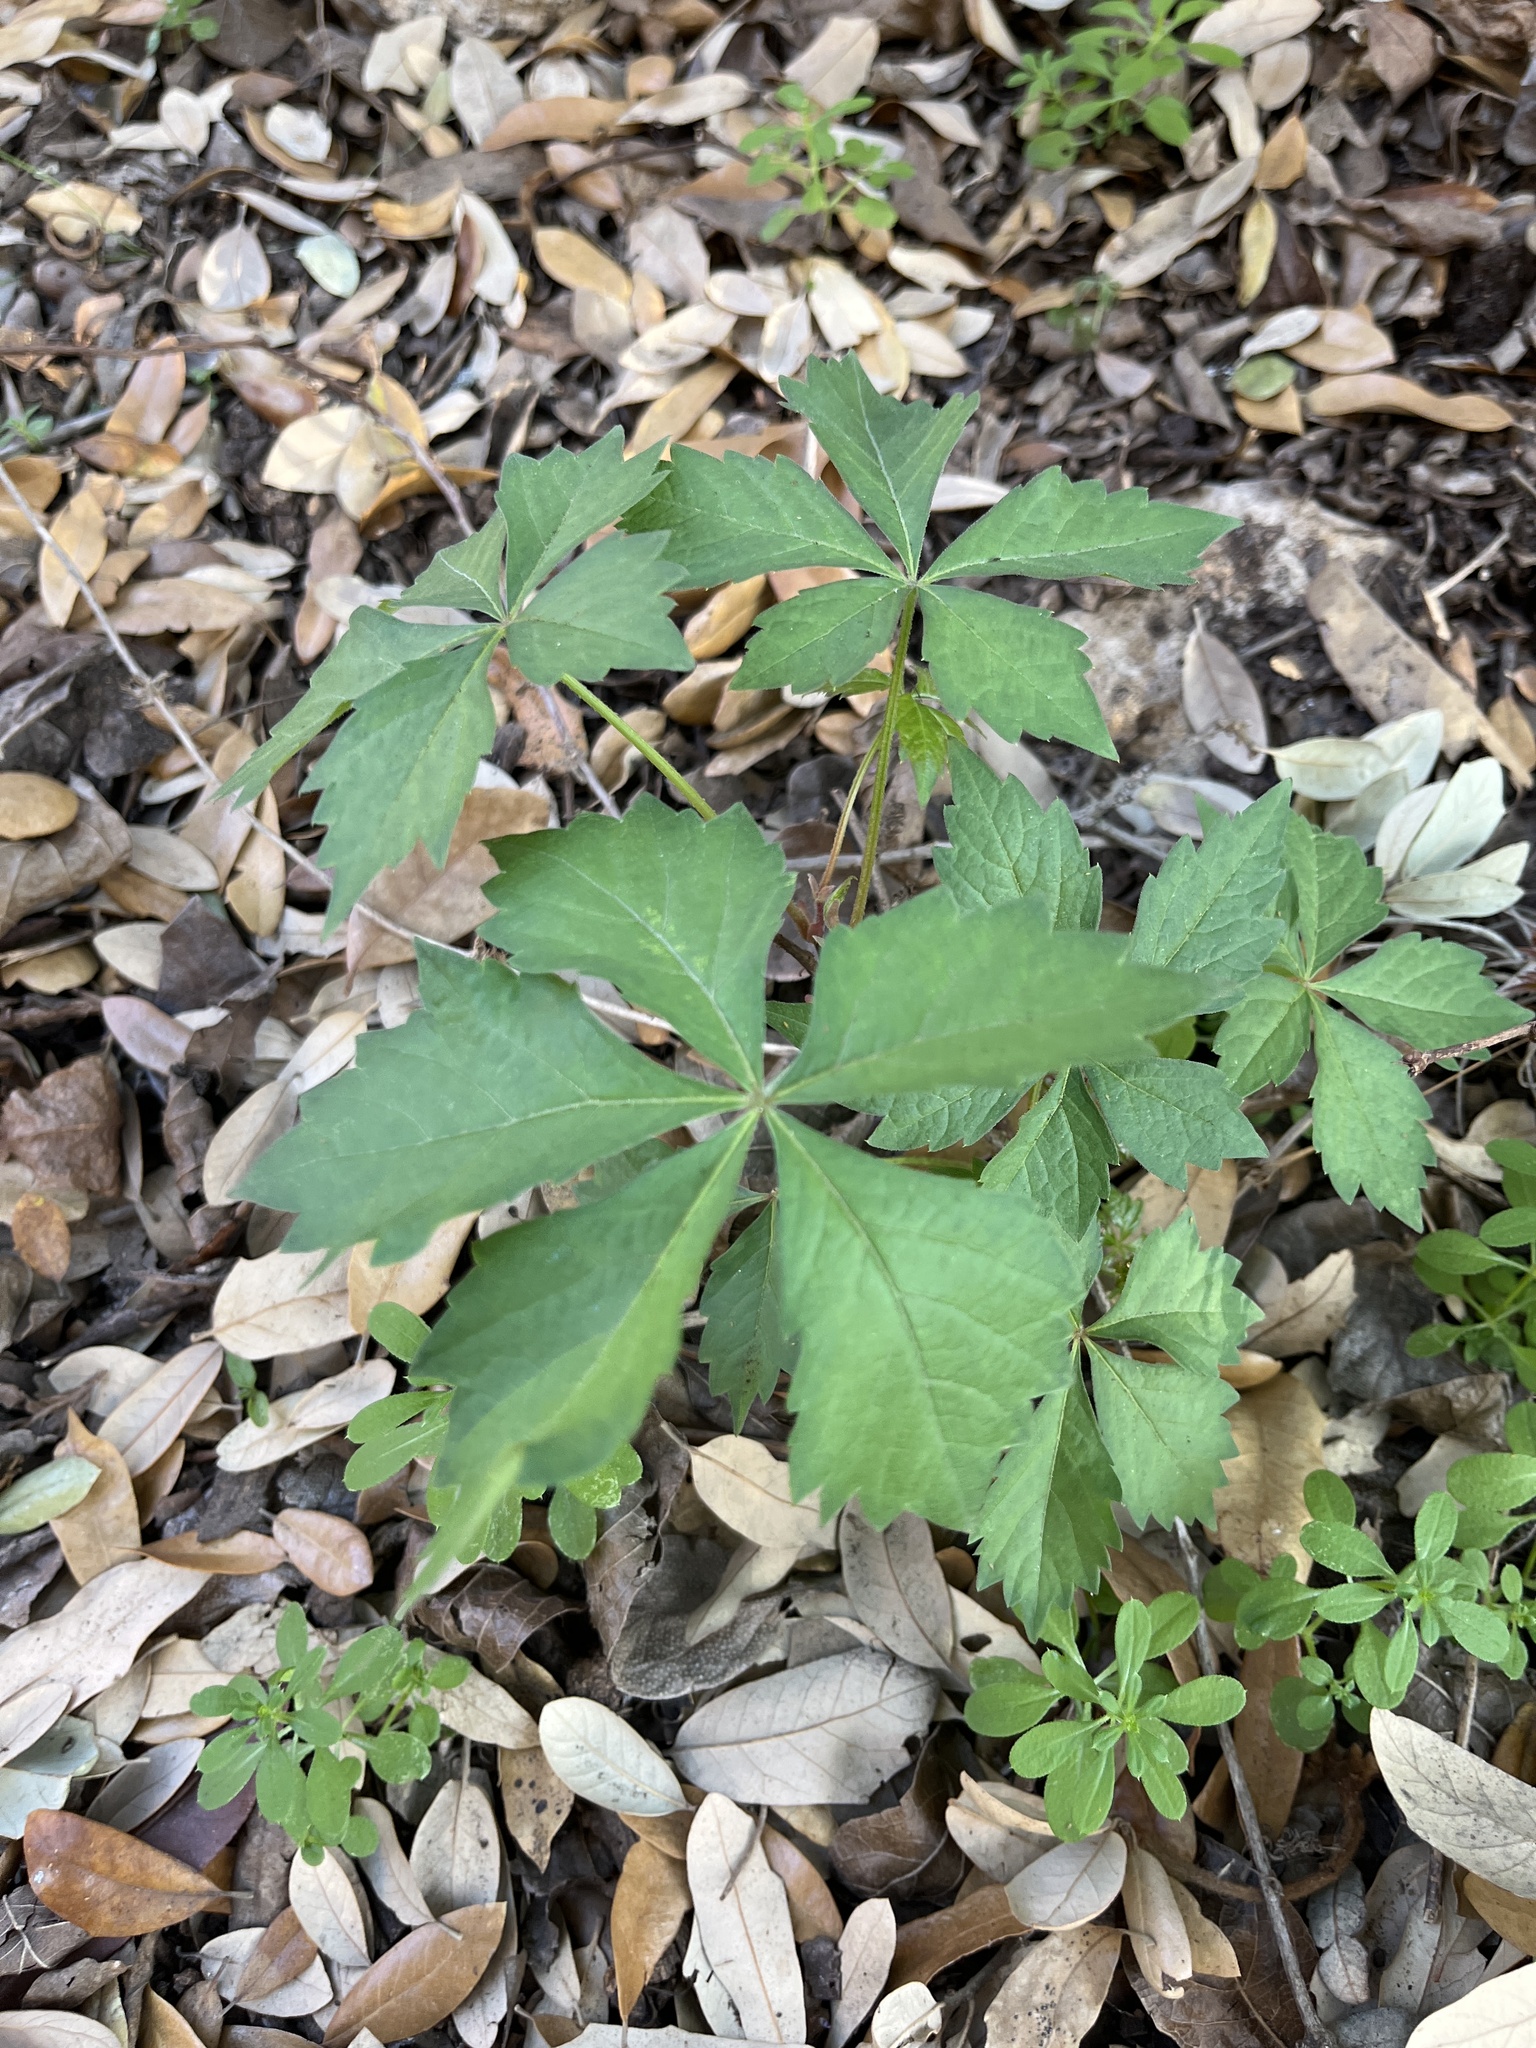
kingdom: Plantae
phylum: Tracheophyta
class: Magnoliopsida
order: Vitales
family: Vitaceae
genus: Parthenocissus
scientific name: Parthenocissus quinquefolia
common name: Virginia-creeper
